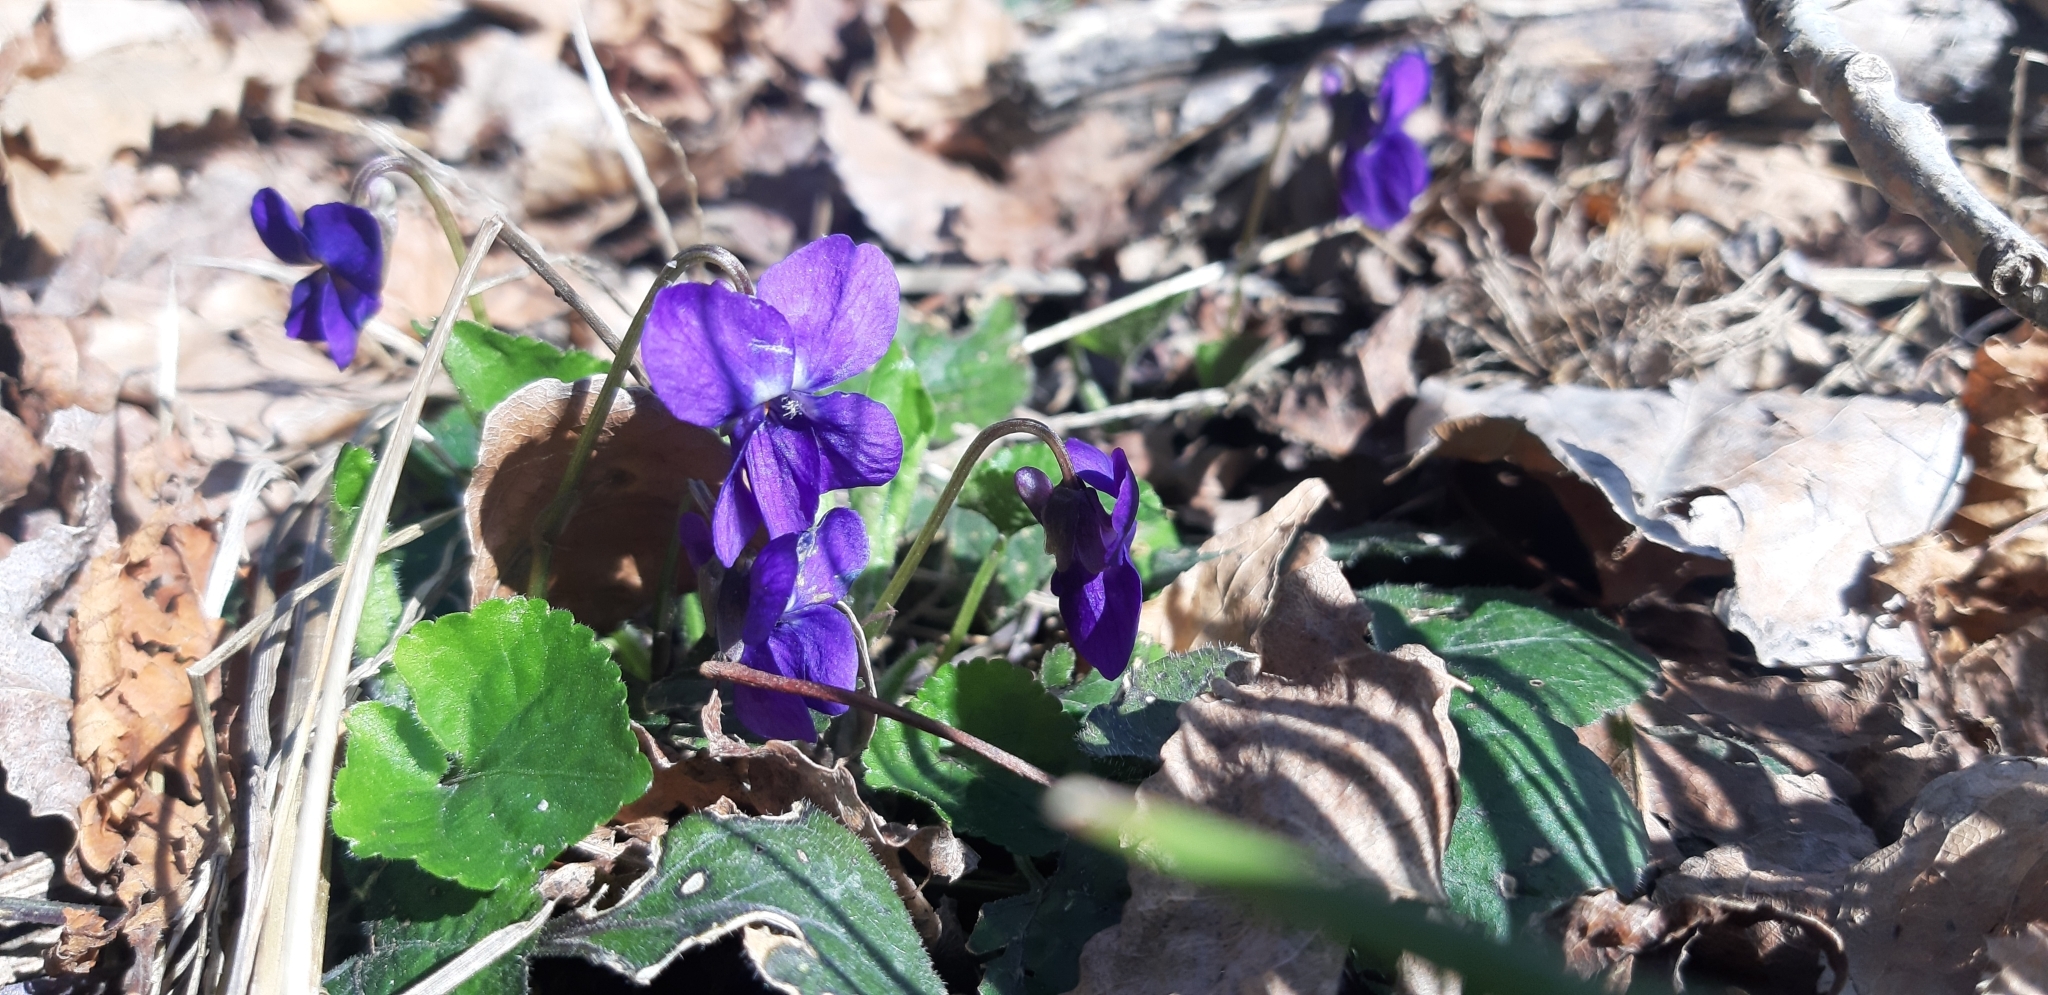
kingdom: Plantae
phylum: Tracheophyta
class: Magnoliopsida
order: Malpighiales
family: Violaceae
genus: Viola
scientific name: Viola odorata
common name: Sweet violet
